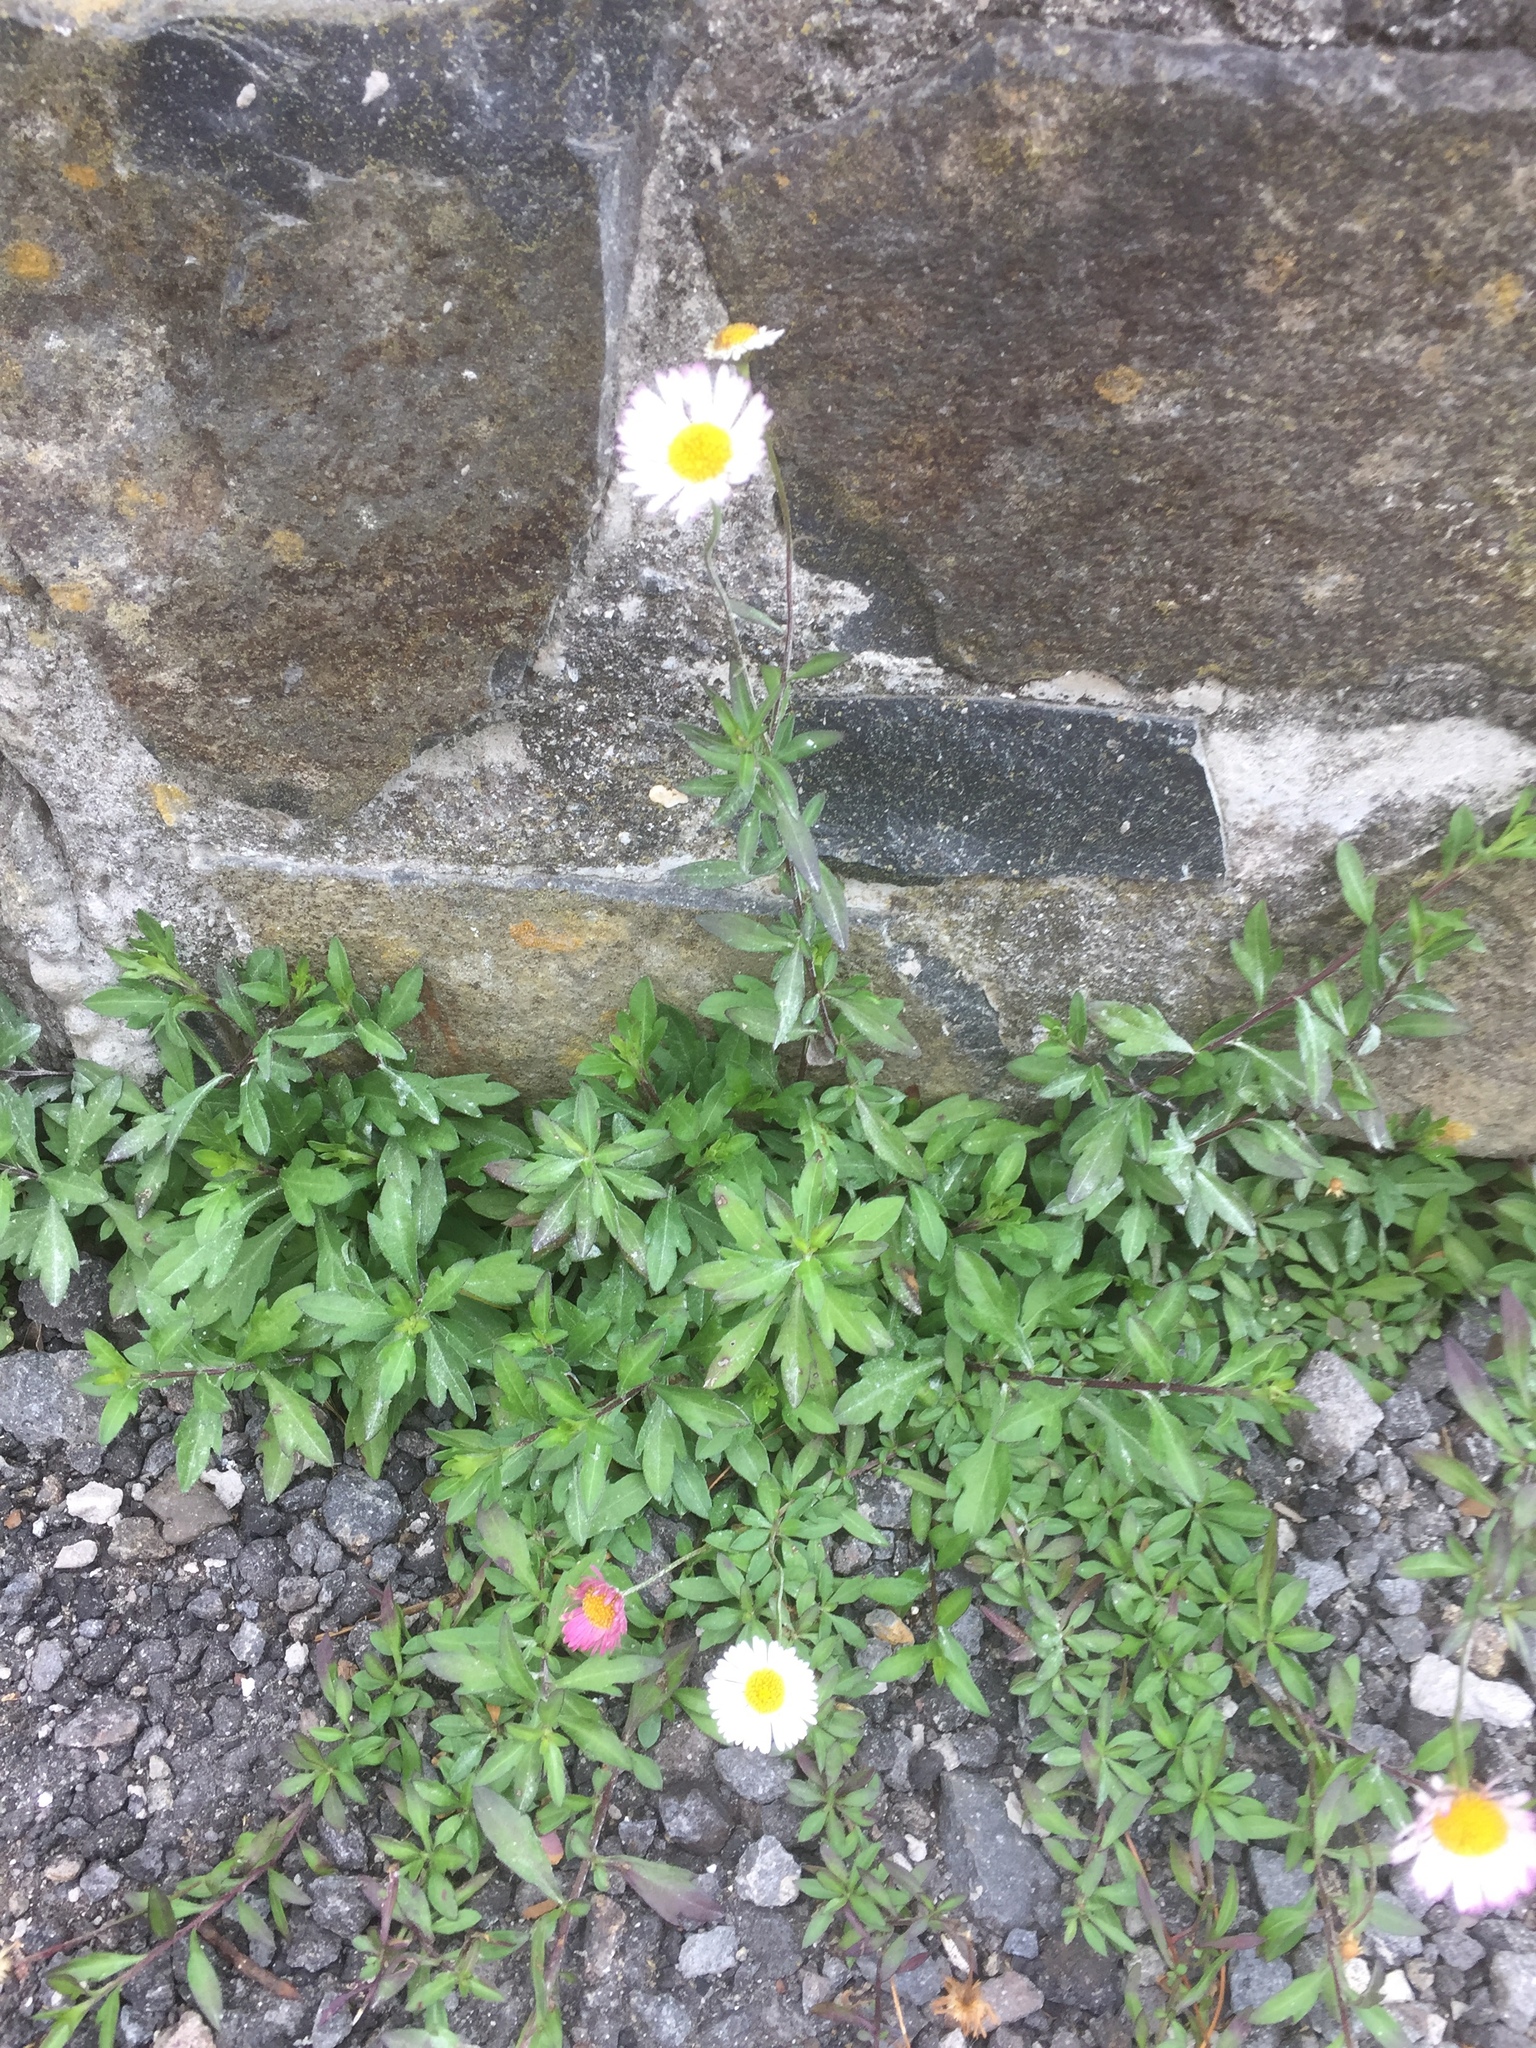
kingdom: Plantae
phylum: Tracheophyta
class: Magnoliopsida
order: Asterales
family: Asteraceae
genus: Erigeron
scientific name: Erigeron karvinskianus
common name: Mexican fleabane
